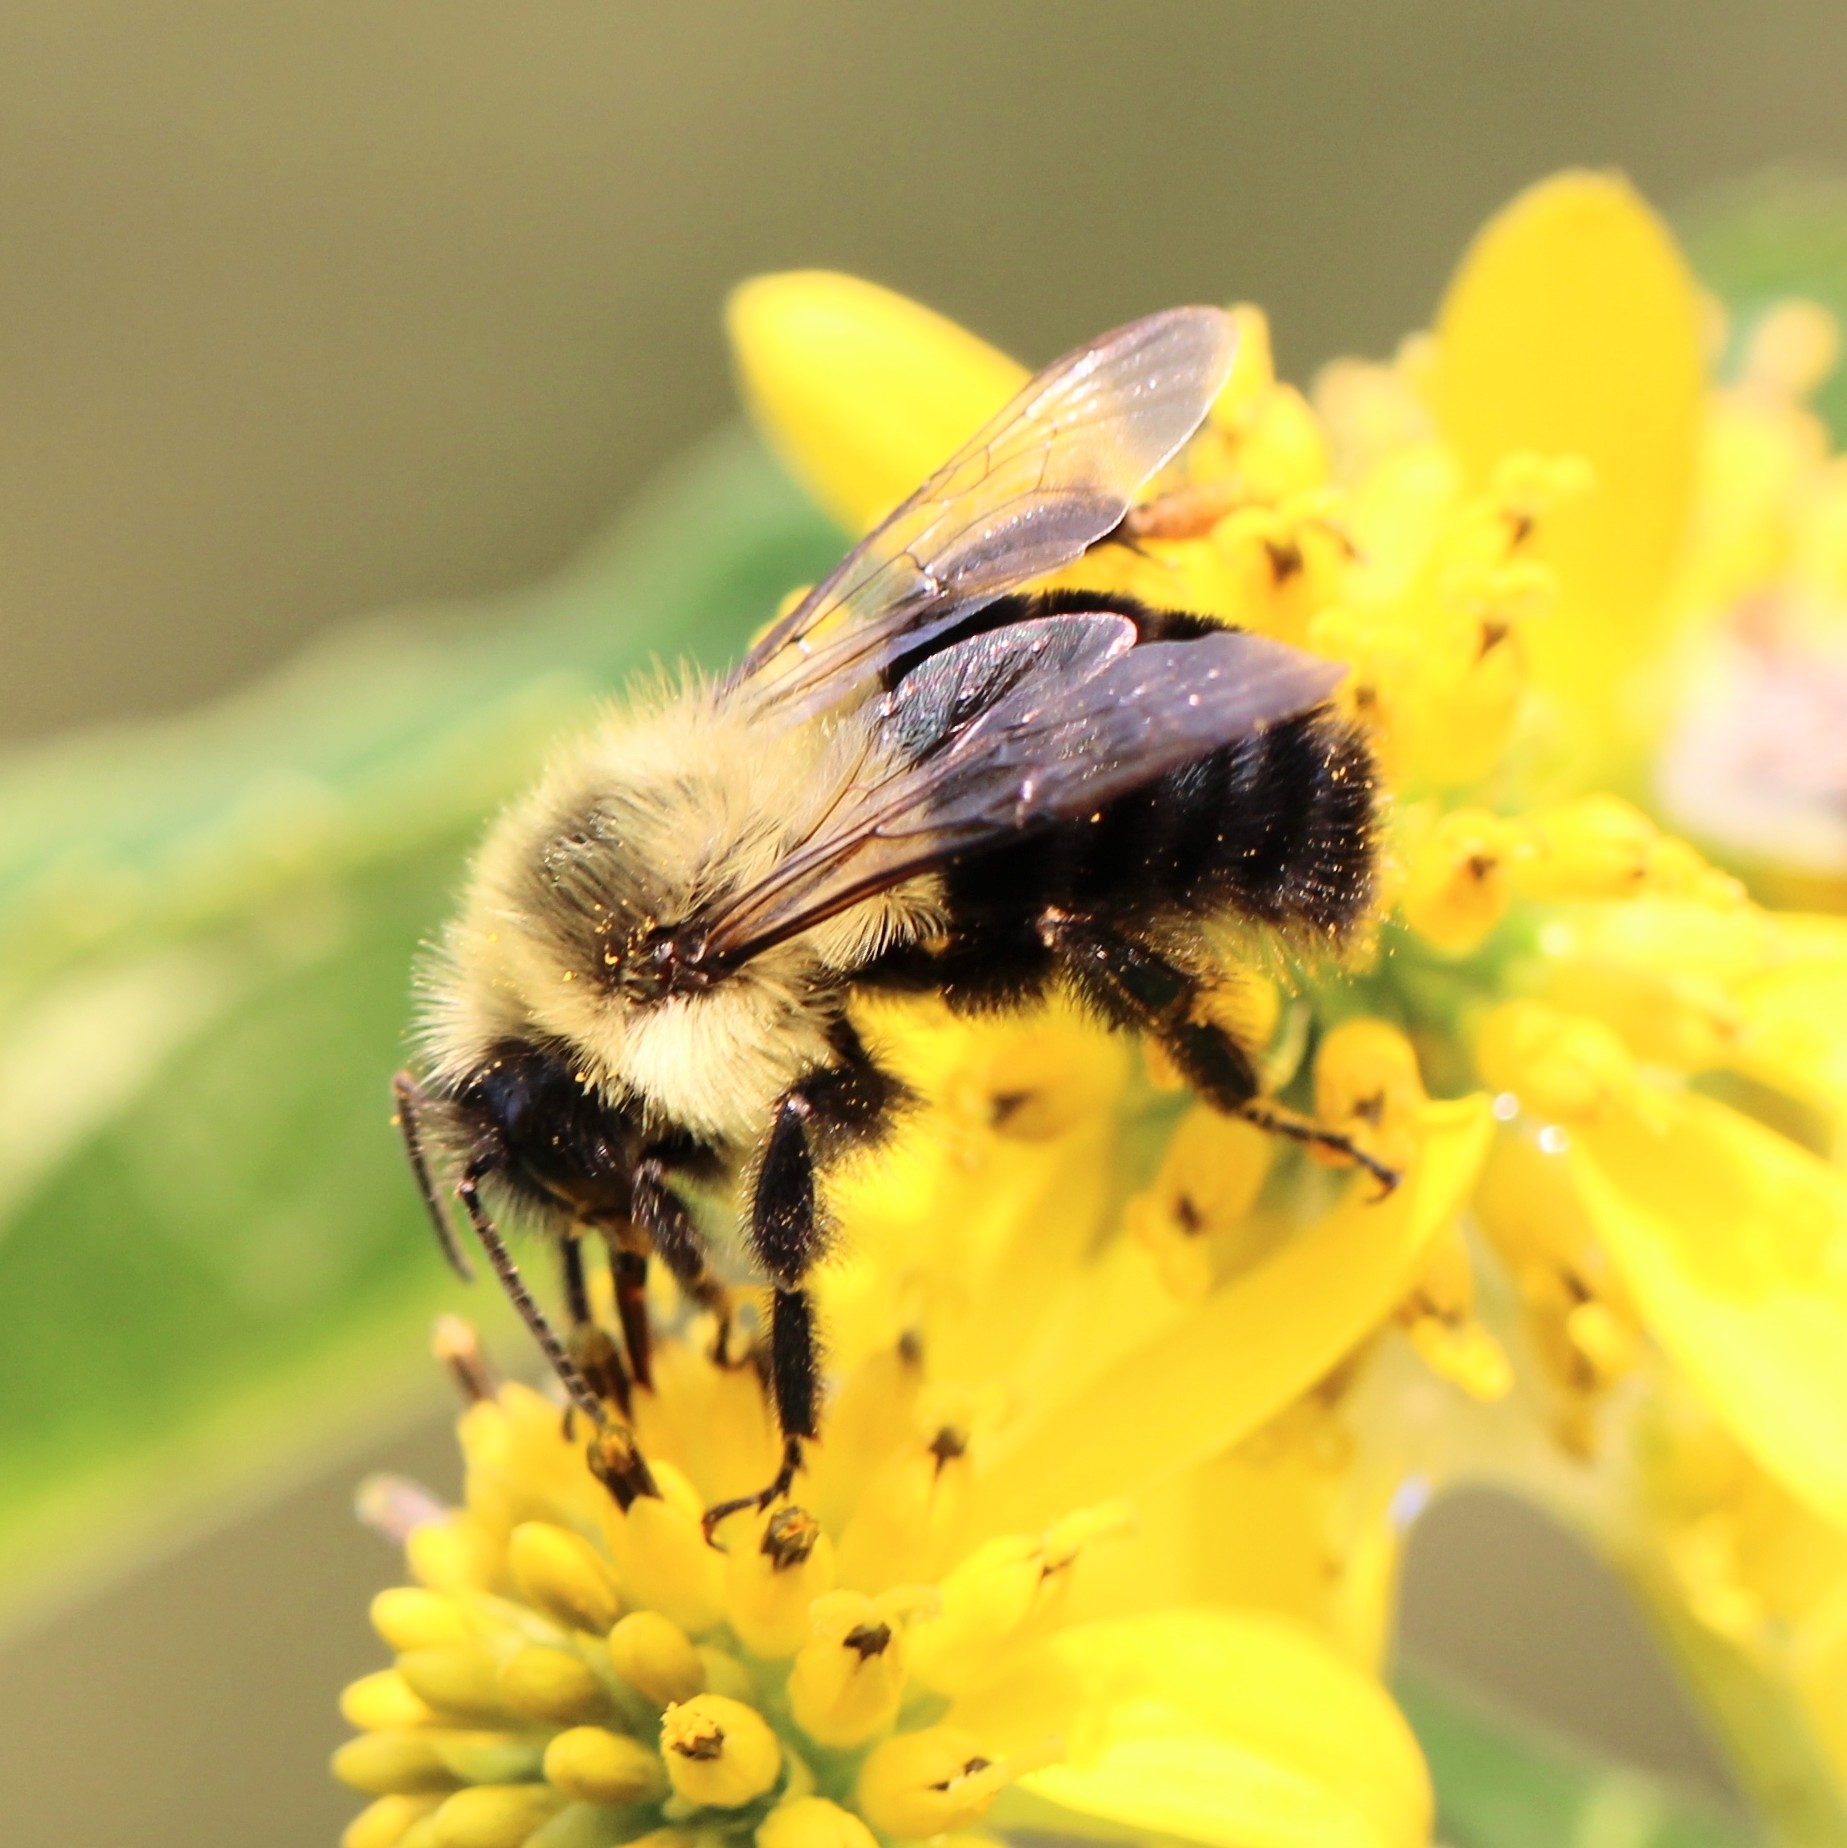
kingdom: Animalia
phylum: Arthropoda
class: Insecta
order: Hymenoptera
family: Apidae
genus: Bombus
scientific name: Bombus impatiens
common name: Common eastern bumble bee
